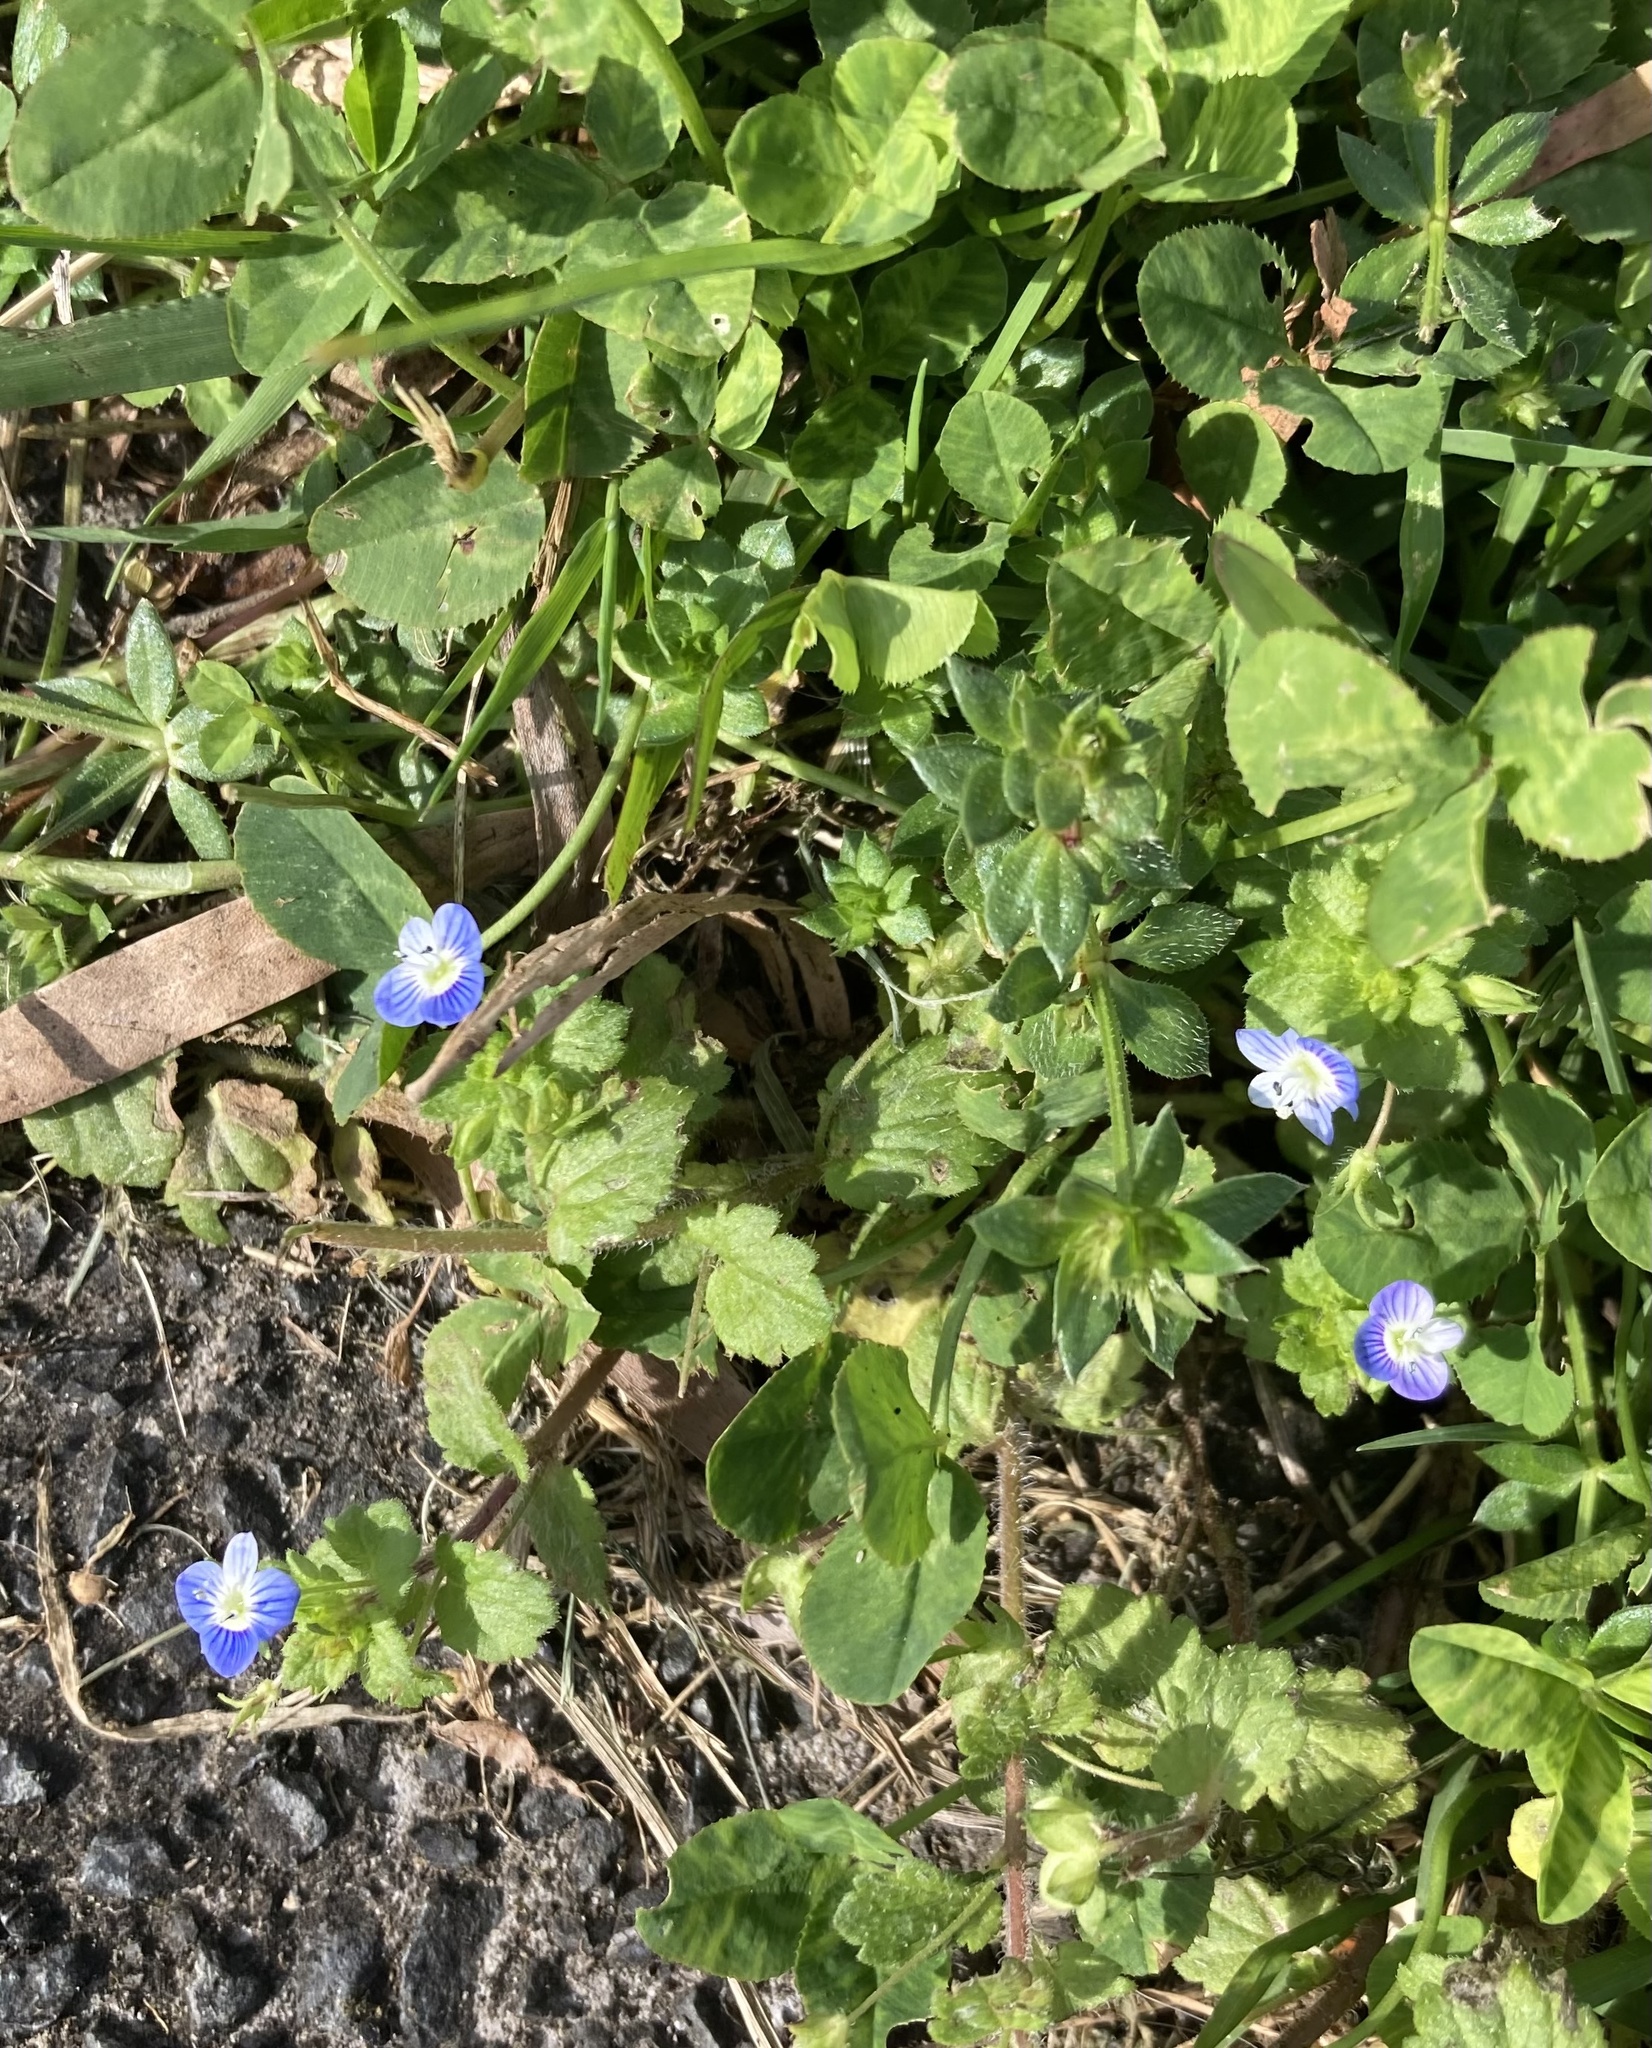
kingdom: Plantae
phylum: Tracheophyta
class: Magnoliopsida
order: Lamiales
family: Plantaginaceae
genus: Veronica
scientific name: Veronica persica
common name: Common field-speedwell
